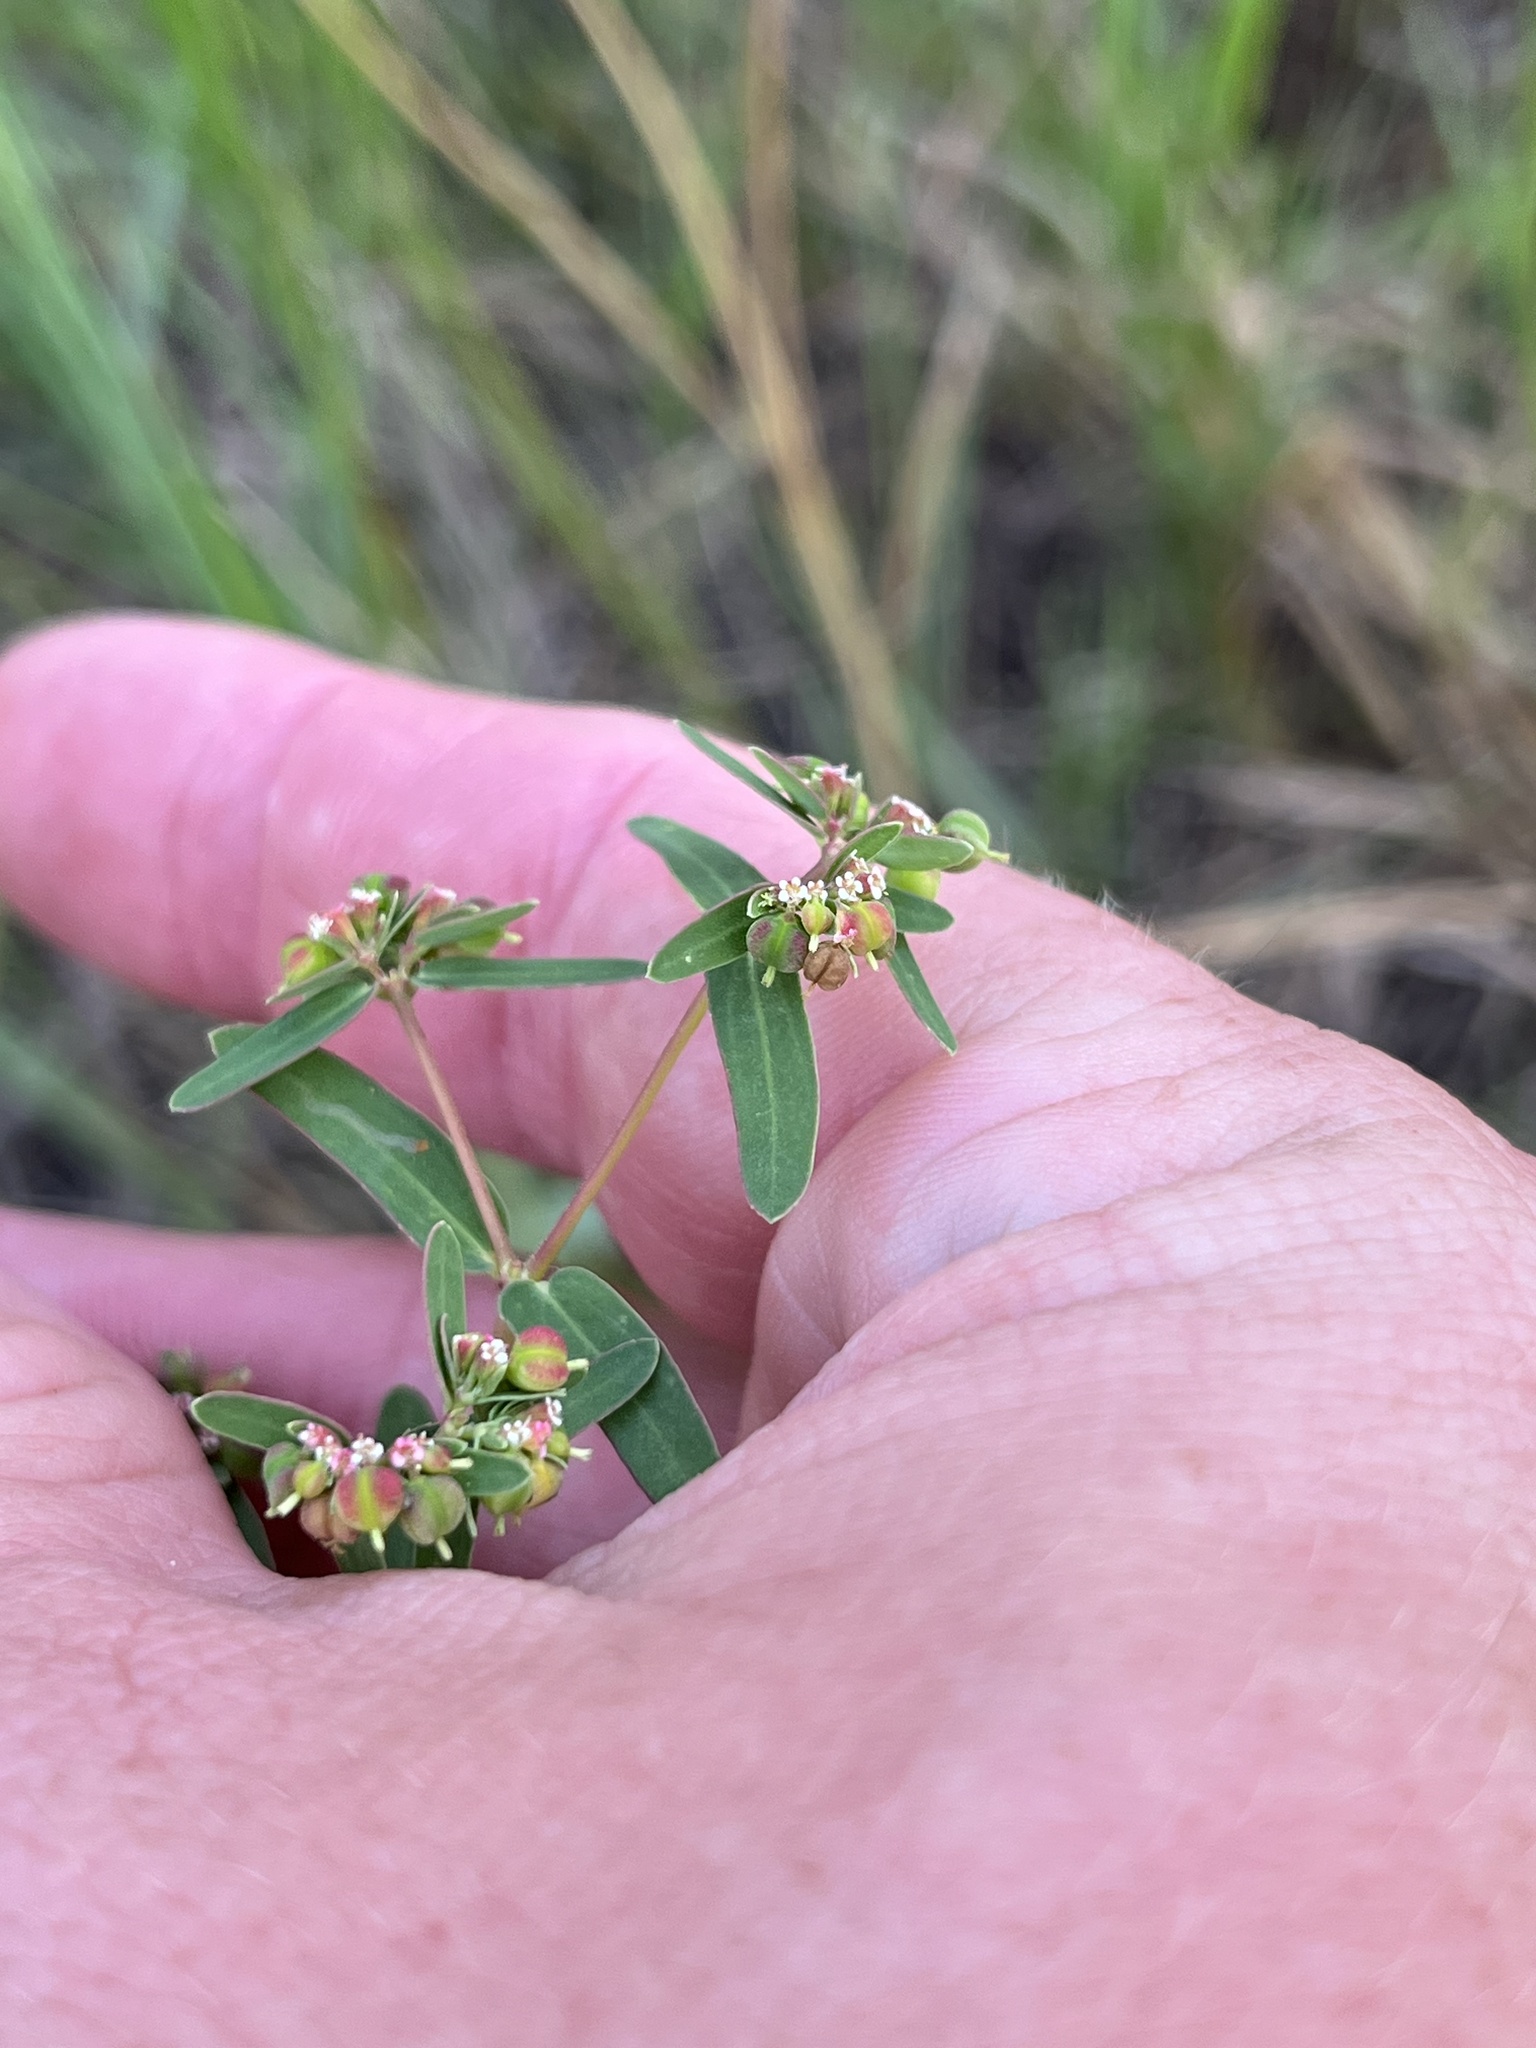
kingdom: Plantae
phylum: Tracheophyta
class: Magnoliopsida
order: Malpighiales
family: Euphorbiaceae
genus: Euphorbia
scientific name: Euphorbia nutans
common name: Eyebane
